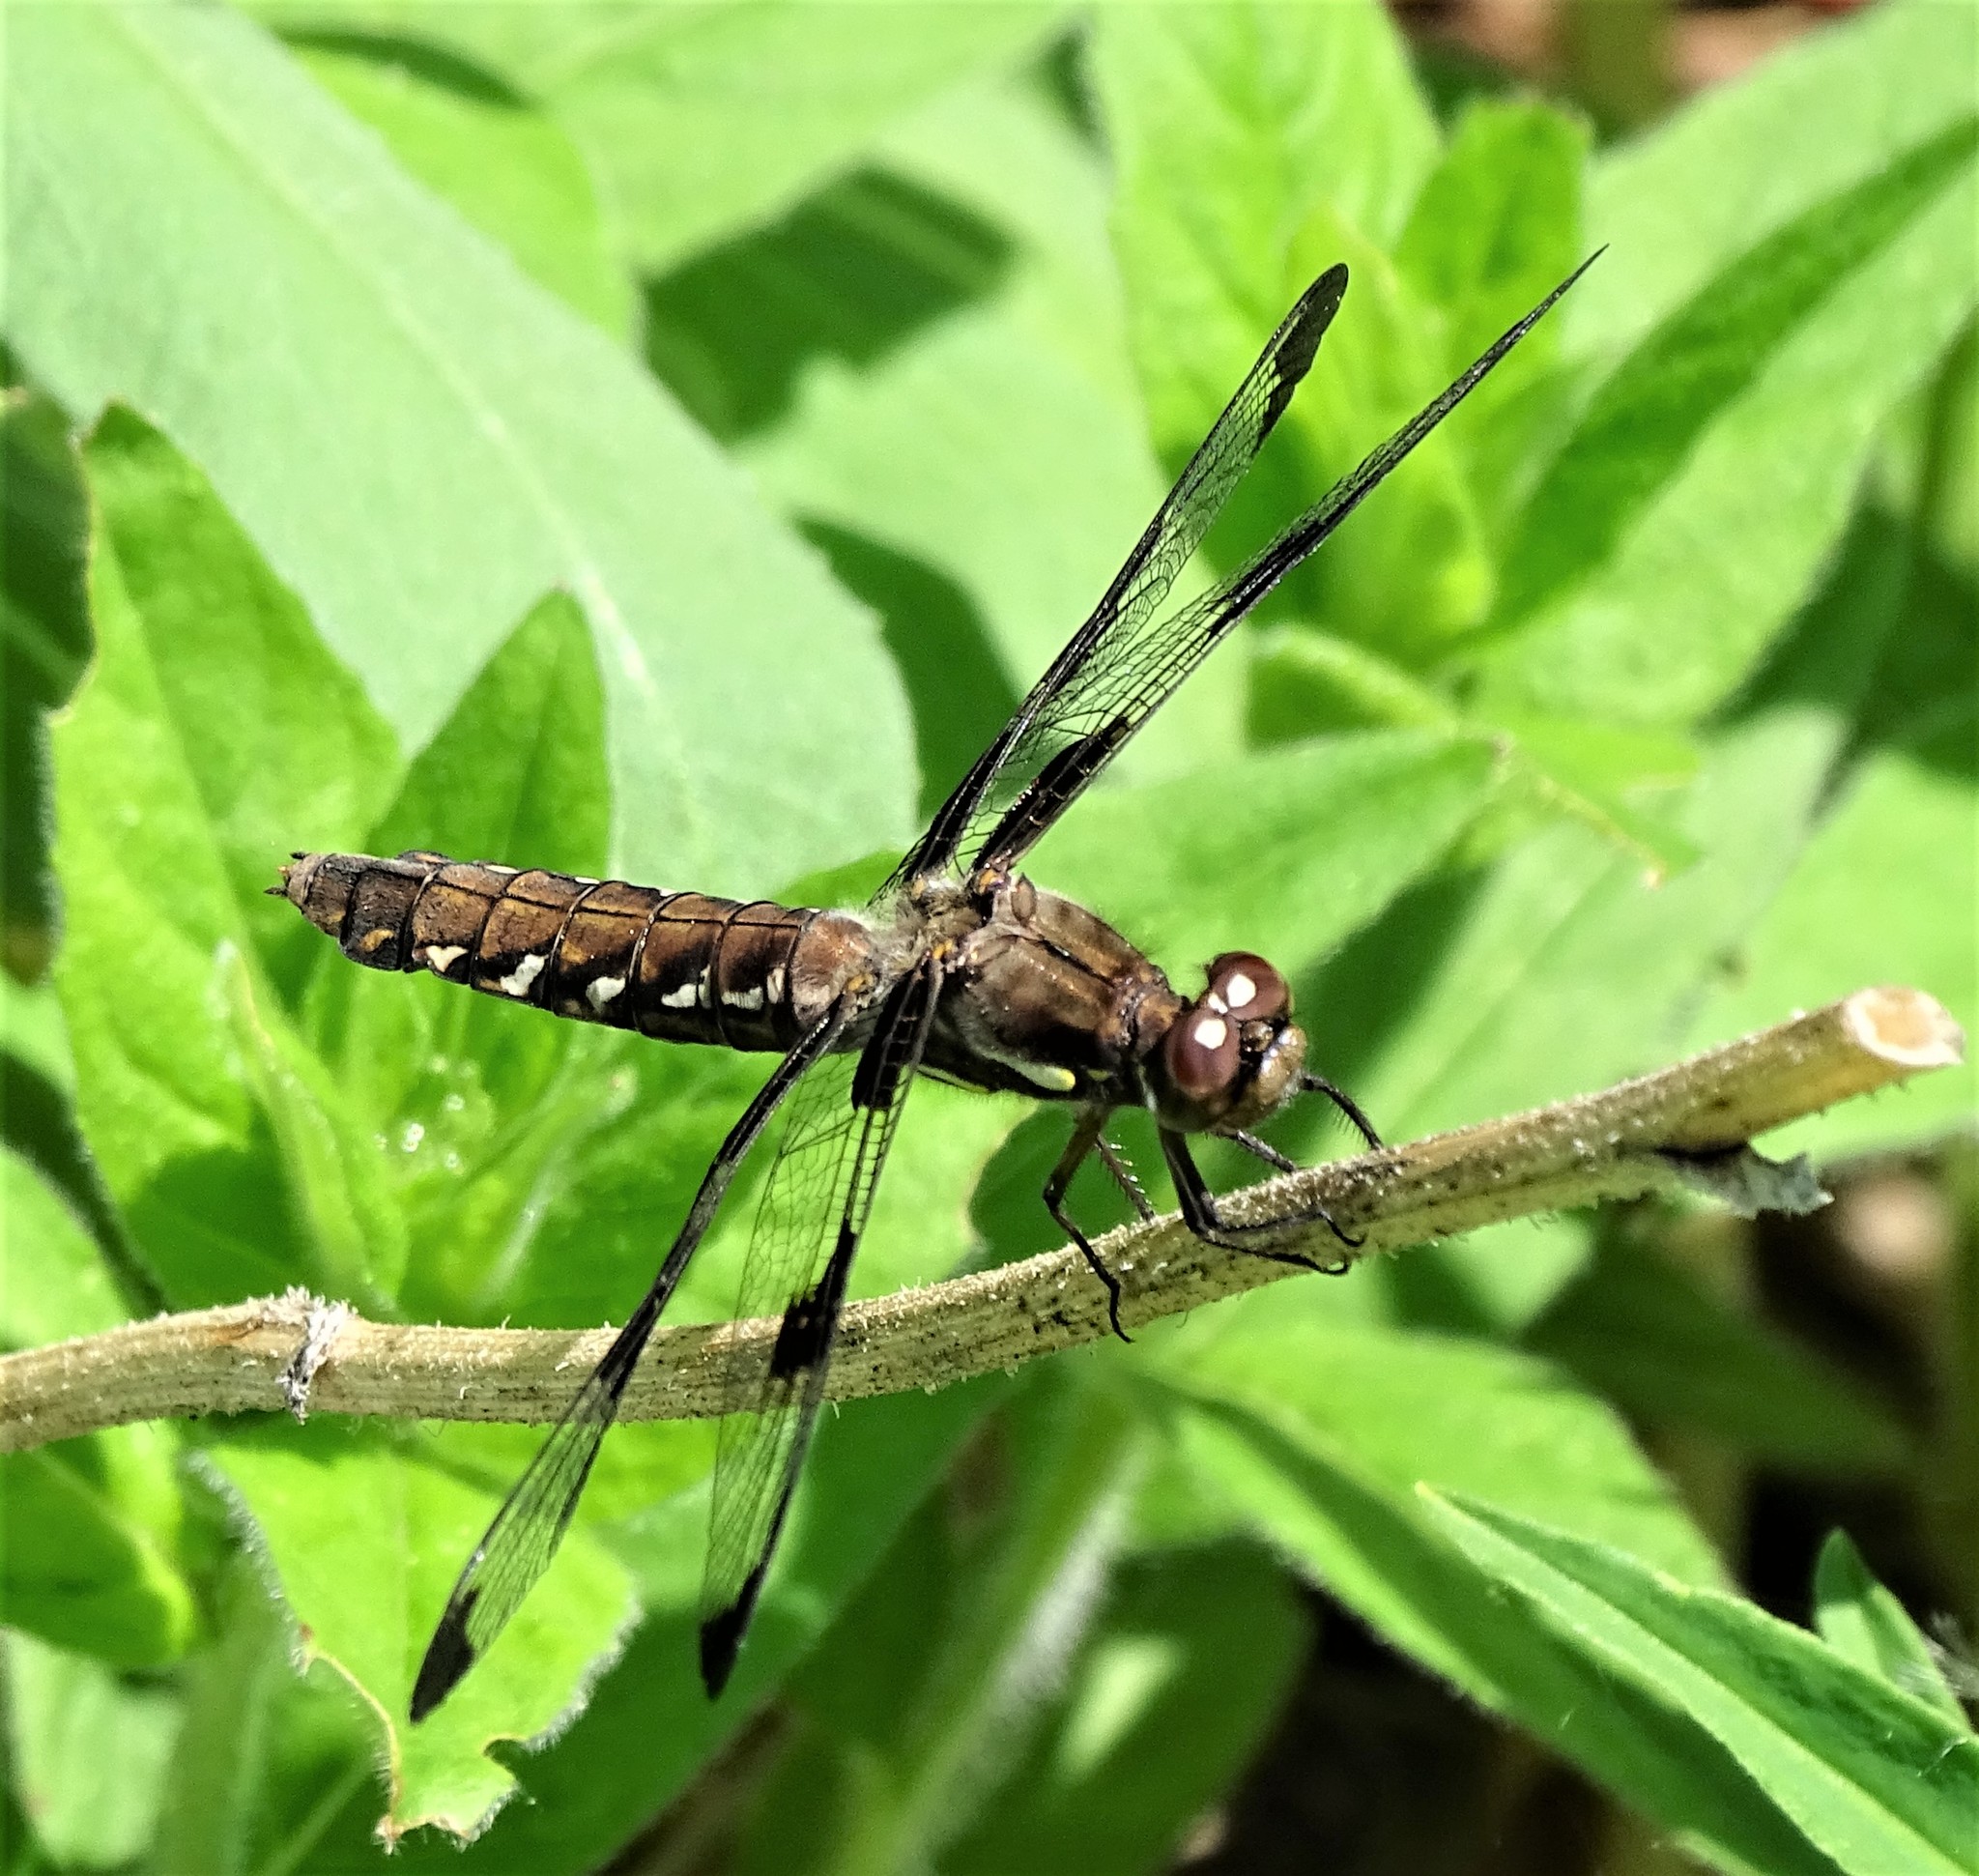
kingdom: Animalia
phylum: Arthropoda
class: Insecta
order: Odonata
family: Libellulidae
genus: Plathemis
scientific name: Plathemis lydia
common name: Common whitetail
